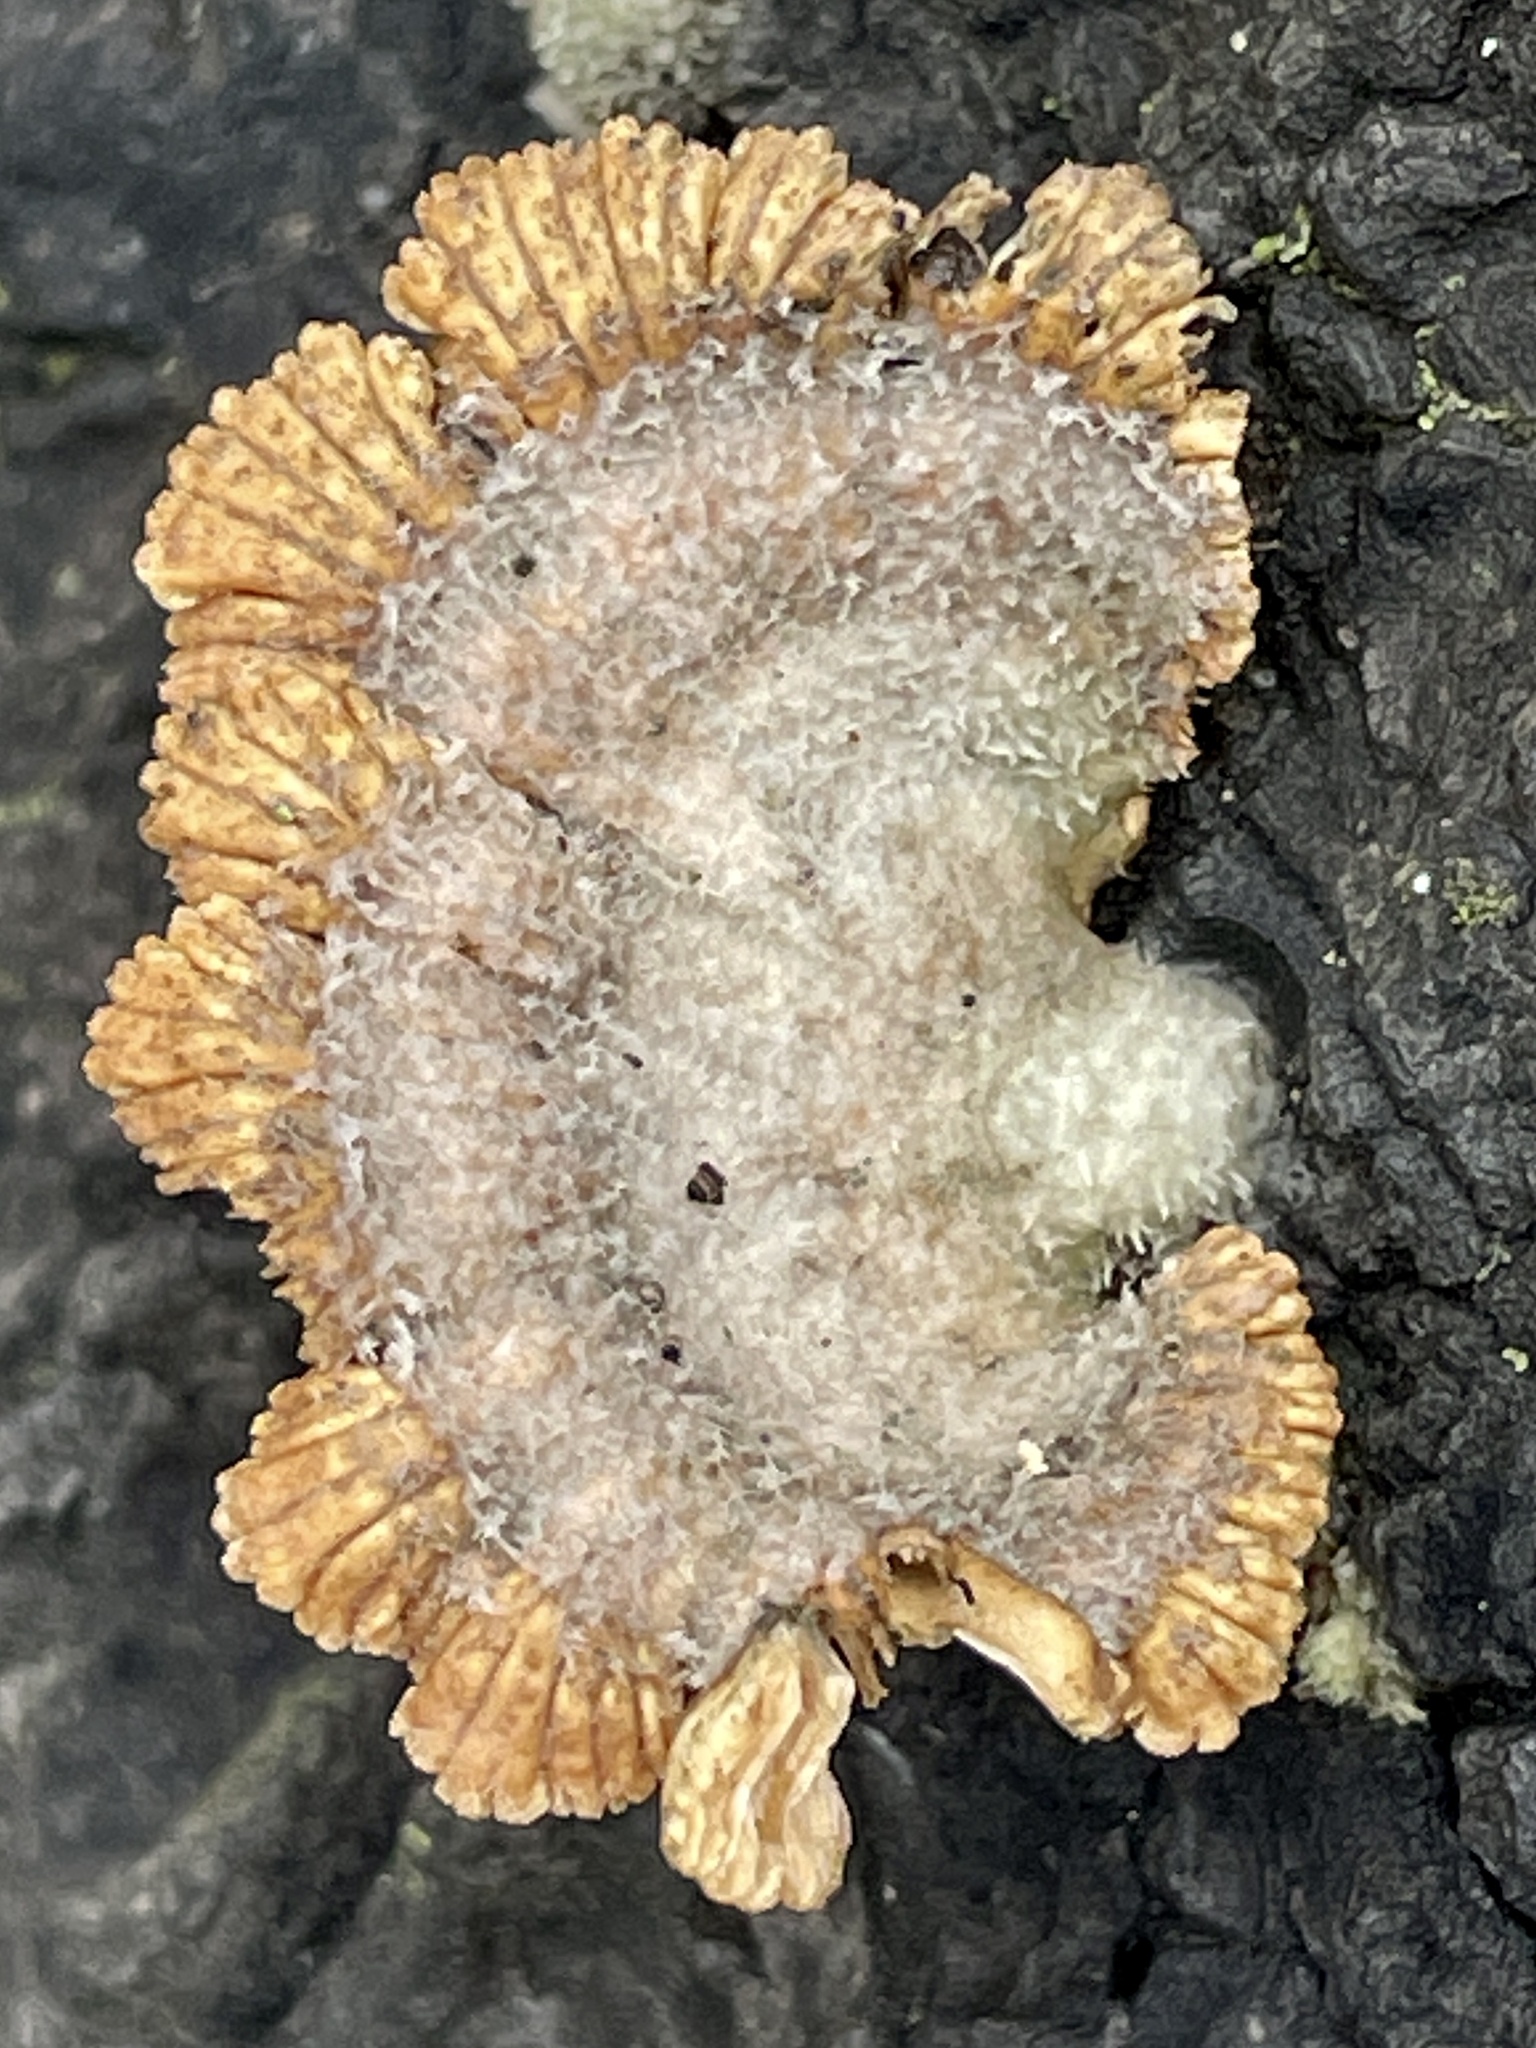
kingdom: Fungi
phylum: Basidiomycota
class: Agaricomycetes
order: Agaricales
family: Schizophyllaceae
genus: Schizophyllum
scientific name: Schizophyllum commune
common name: Common porecrust
